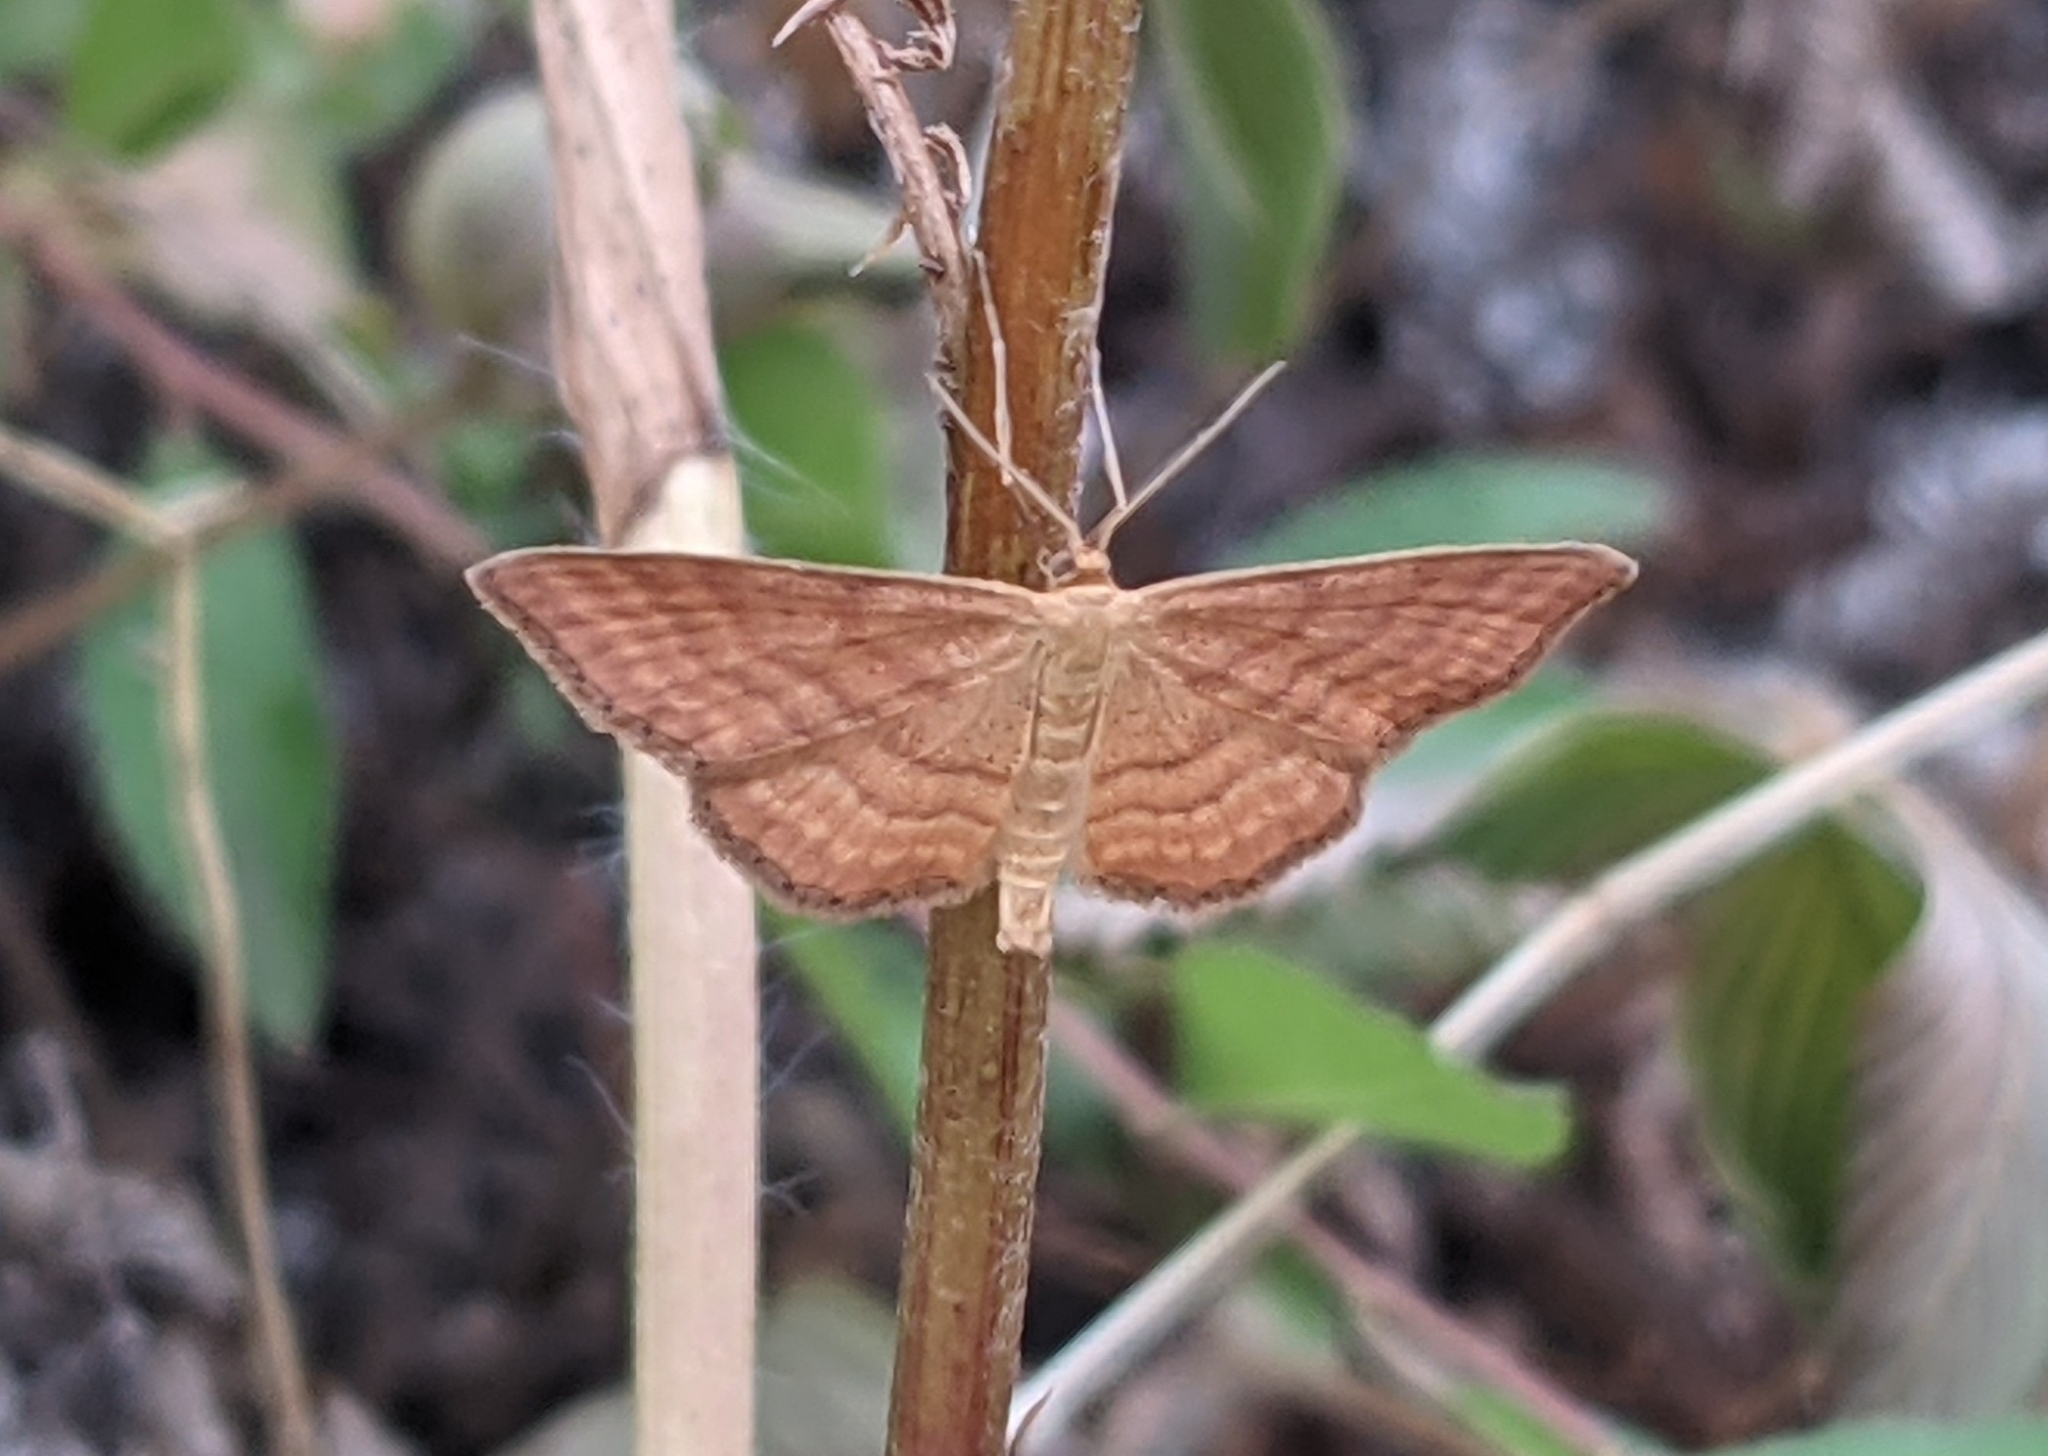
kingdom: Animalia
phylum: Arthropoda
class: Insecta
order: Lepidoptera
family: Geometridae
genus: Idaea
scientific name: Idaea ochrata
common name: Bright wave
